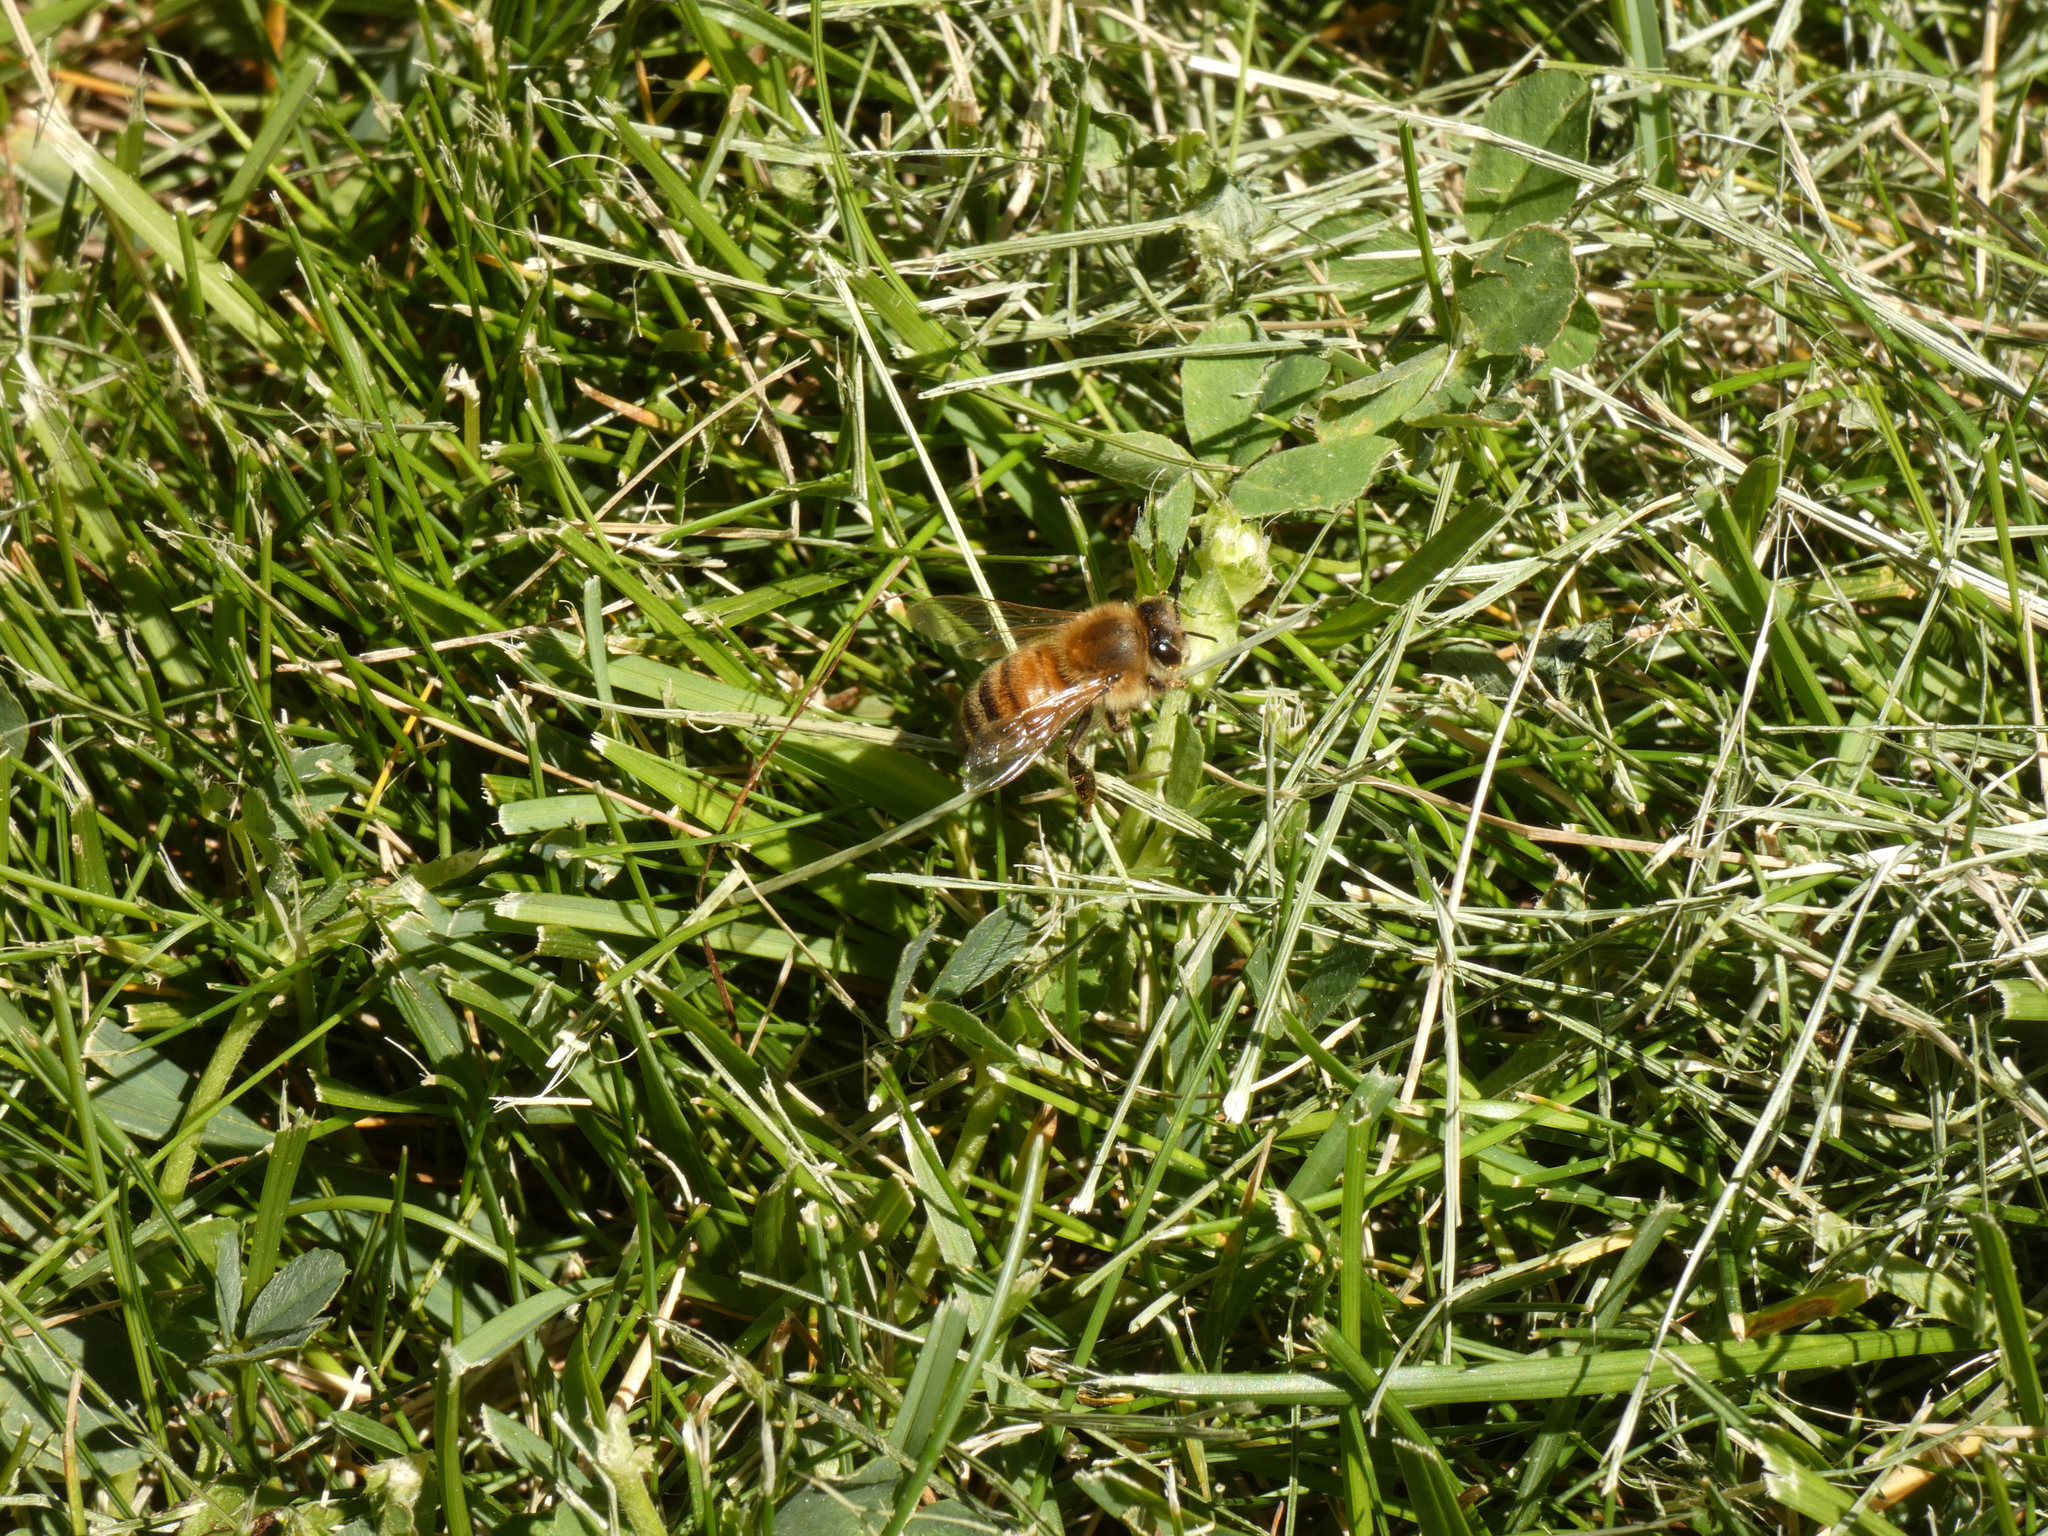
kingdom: Animalia
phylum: Arthropoda
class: Insecta
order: Hymenoptera
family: Apidae
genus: Apis
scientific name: Apis mellifera
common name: Honey bee
